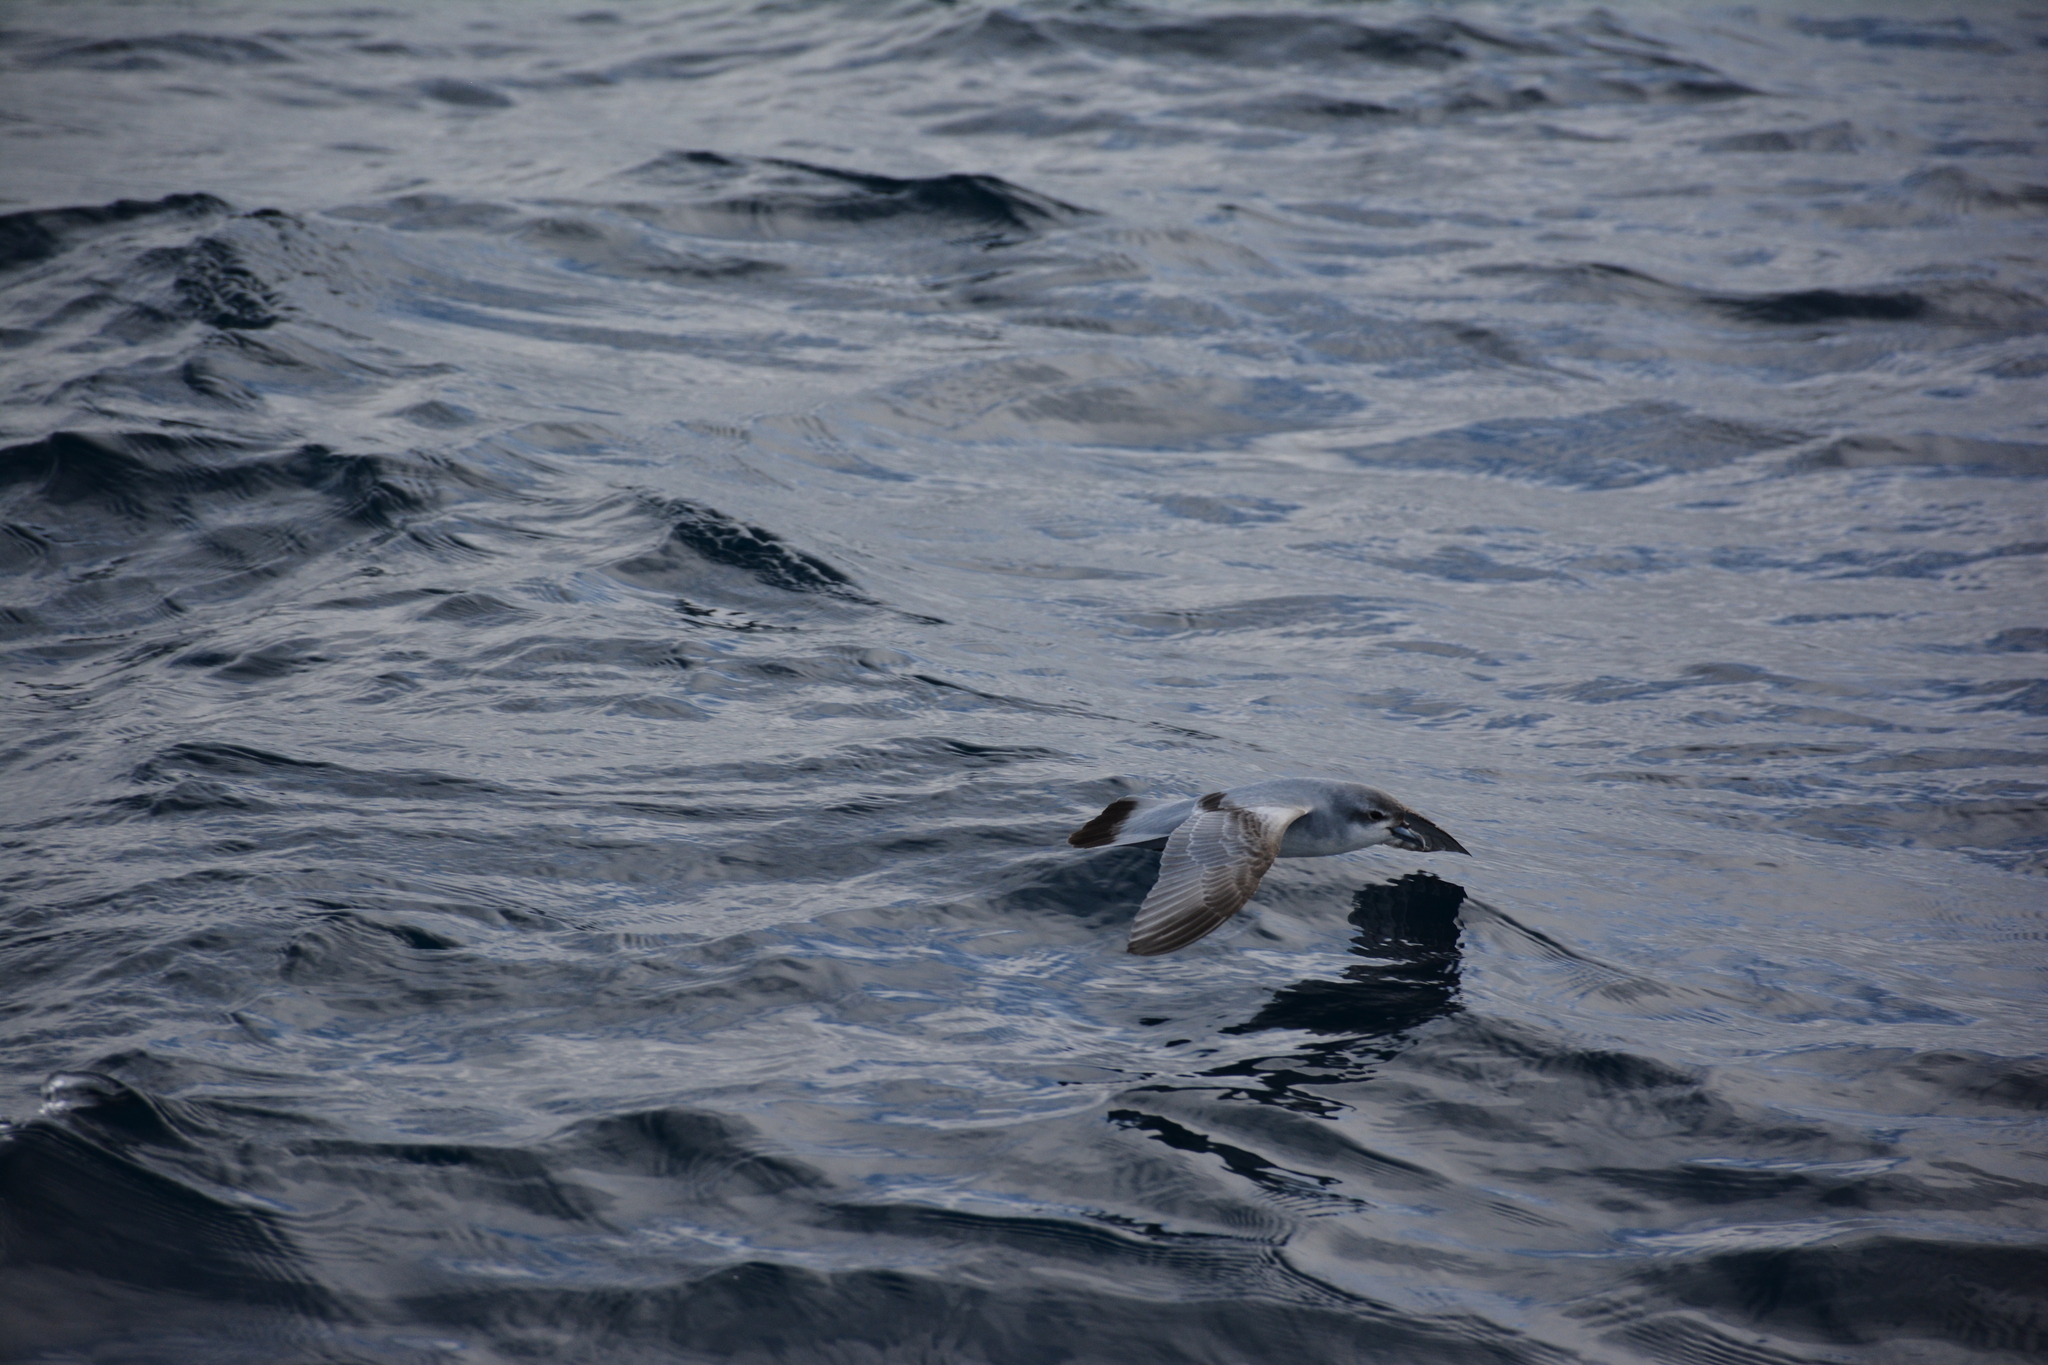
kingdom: Animalia
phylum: Chordata
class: Aves
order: Procellariiformes
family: Procellariidae
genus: Pachyptila
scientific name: Pachyptila turtur
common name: Fairy prion
